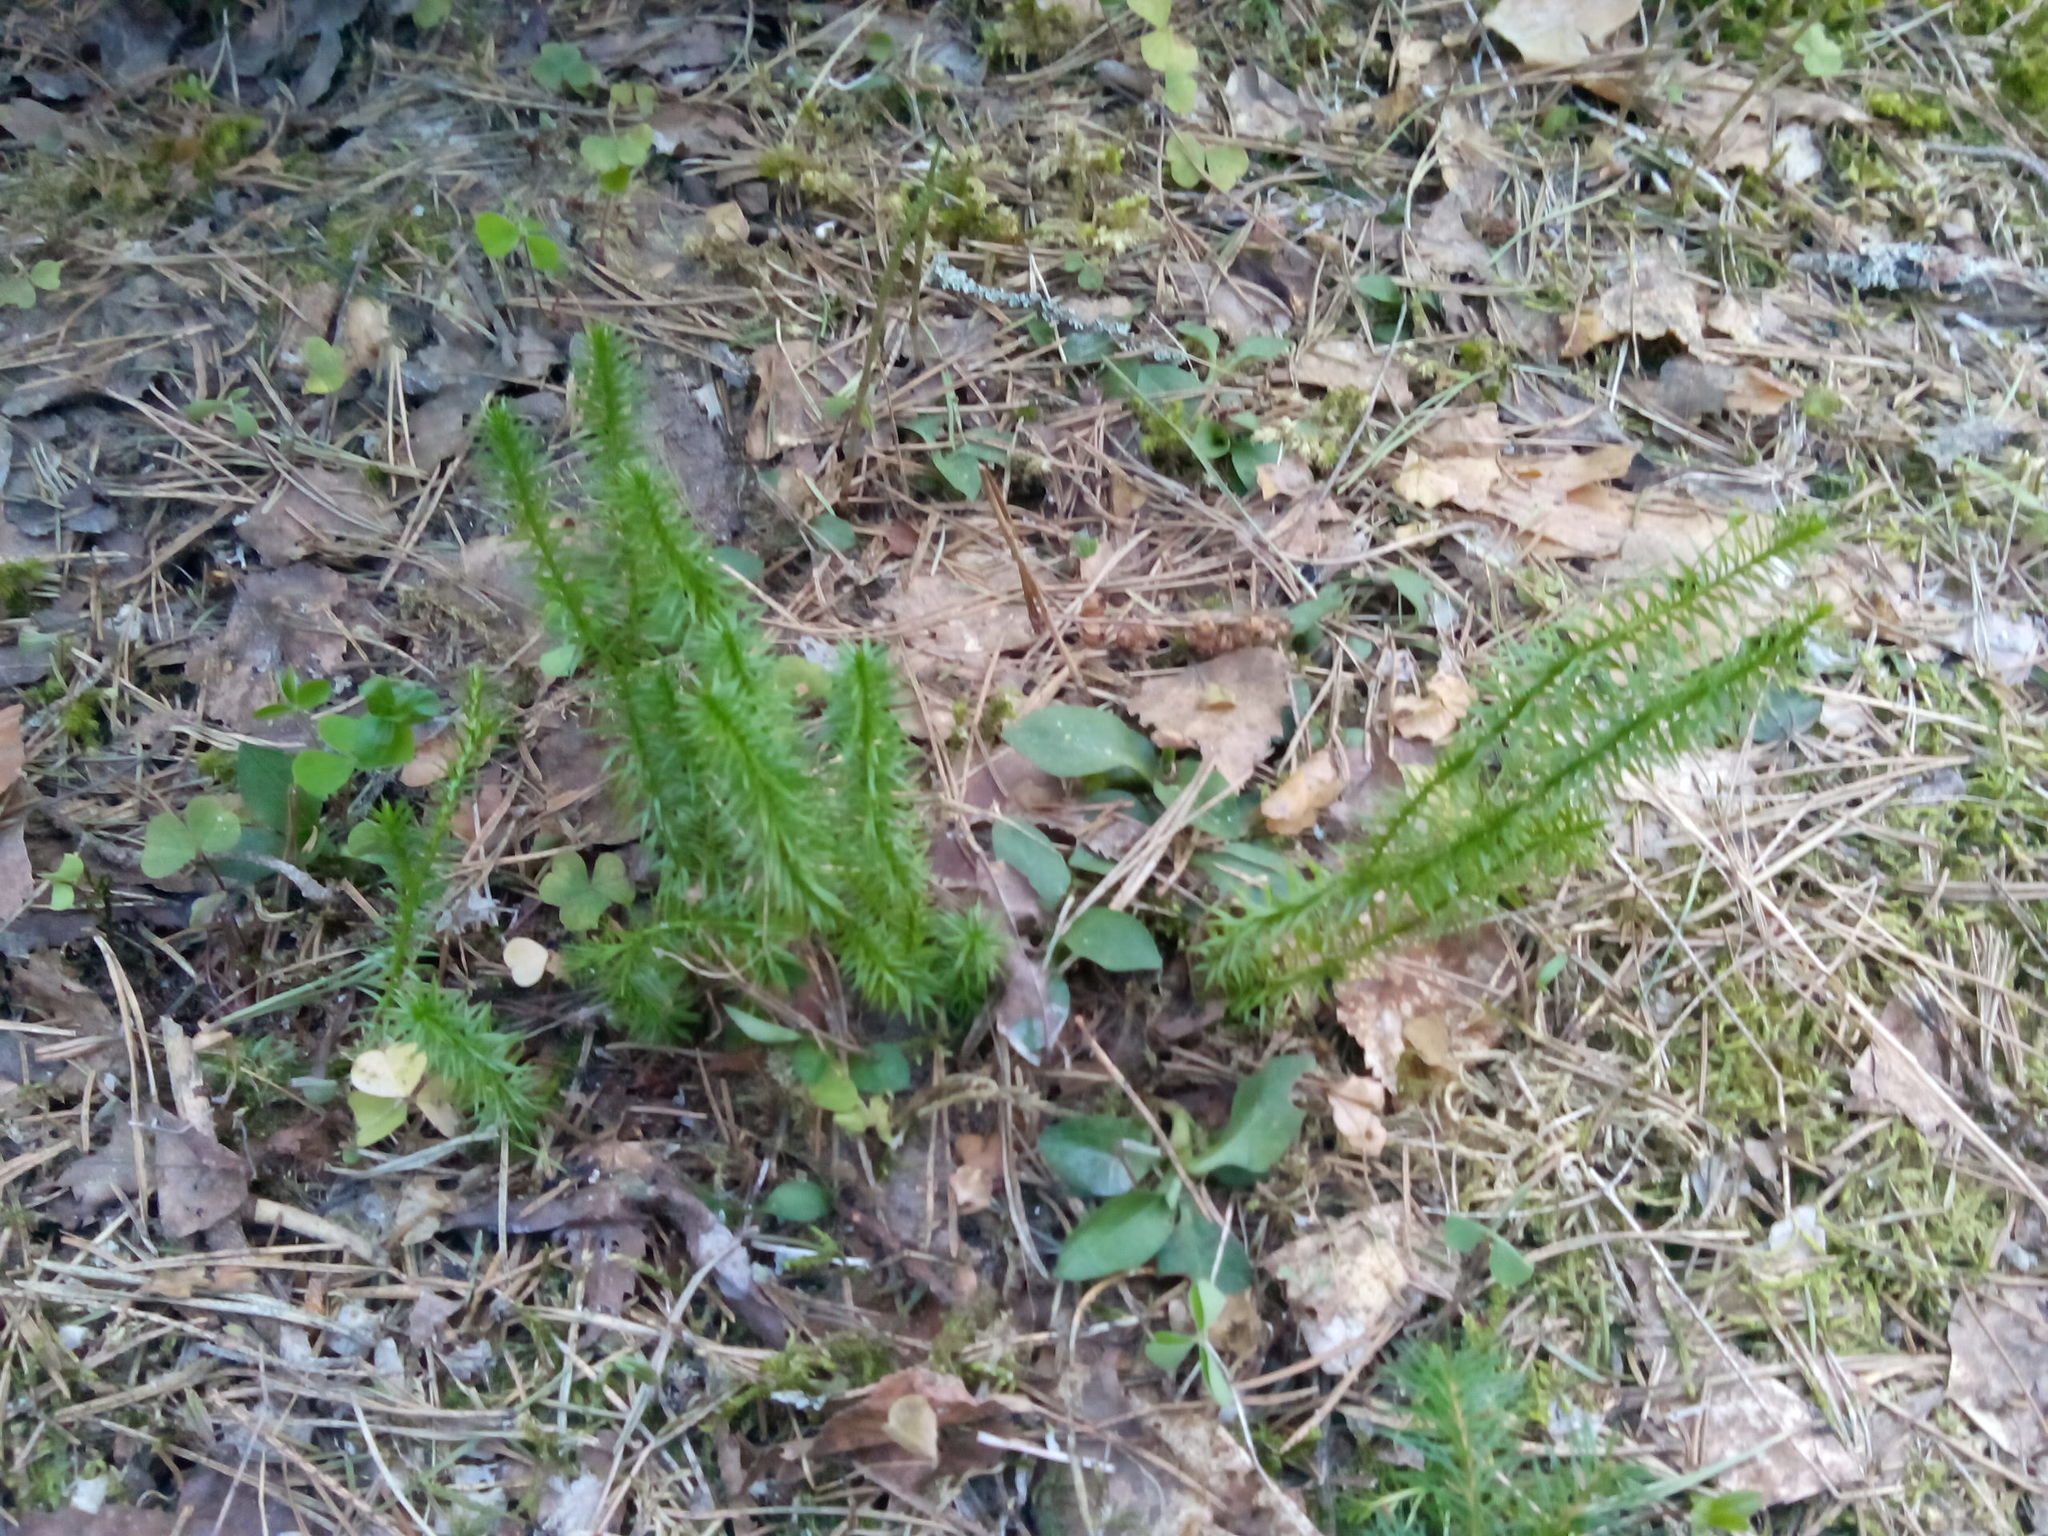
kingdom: Plantae
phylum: Tracheophyta
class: Lycopodiopsida
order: Lycopodiales
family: Lycopodiaceae
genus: Spinulum
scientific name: Spinulum annotinum
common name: Interrupted club-moss
